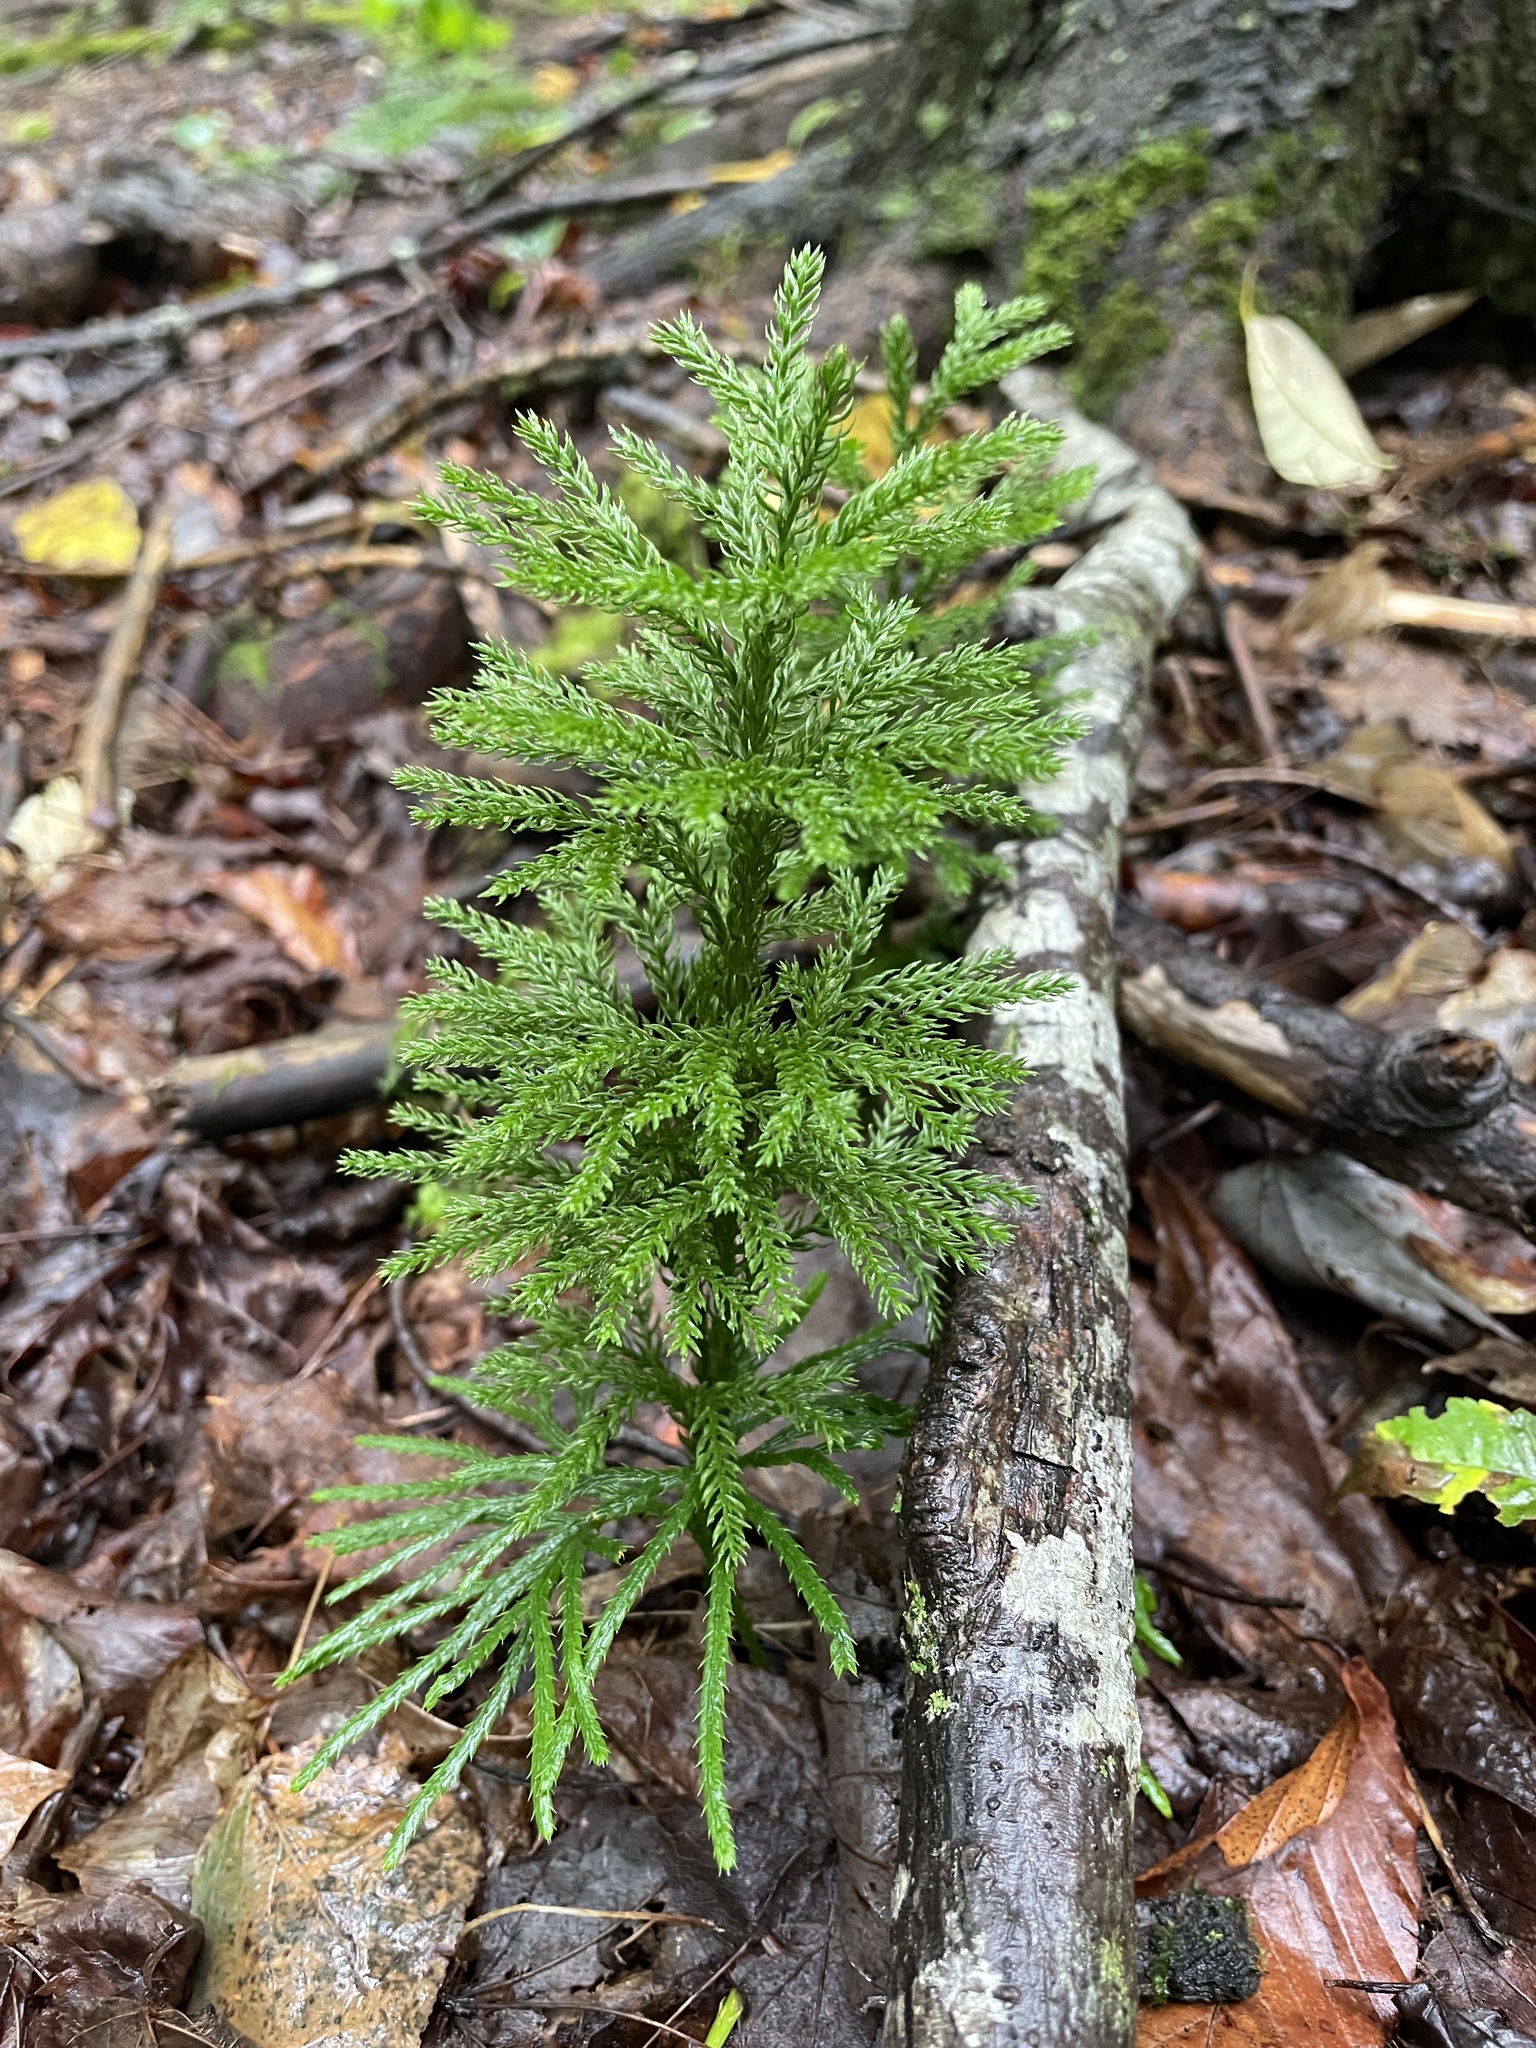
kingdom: Plantae
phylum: Tracheophyta
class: Lycopodiopsida
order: Lycopodiales
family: Lycopodiaceae
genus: Dendrolycopodium
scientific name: Dendrolycopodium hickeyi
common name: Hickey's clubmoss
